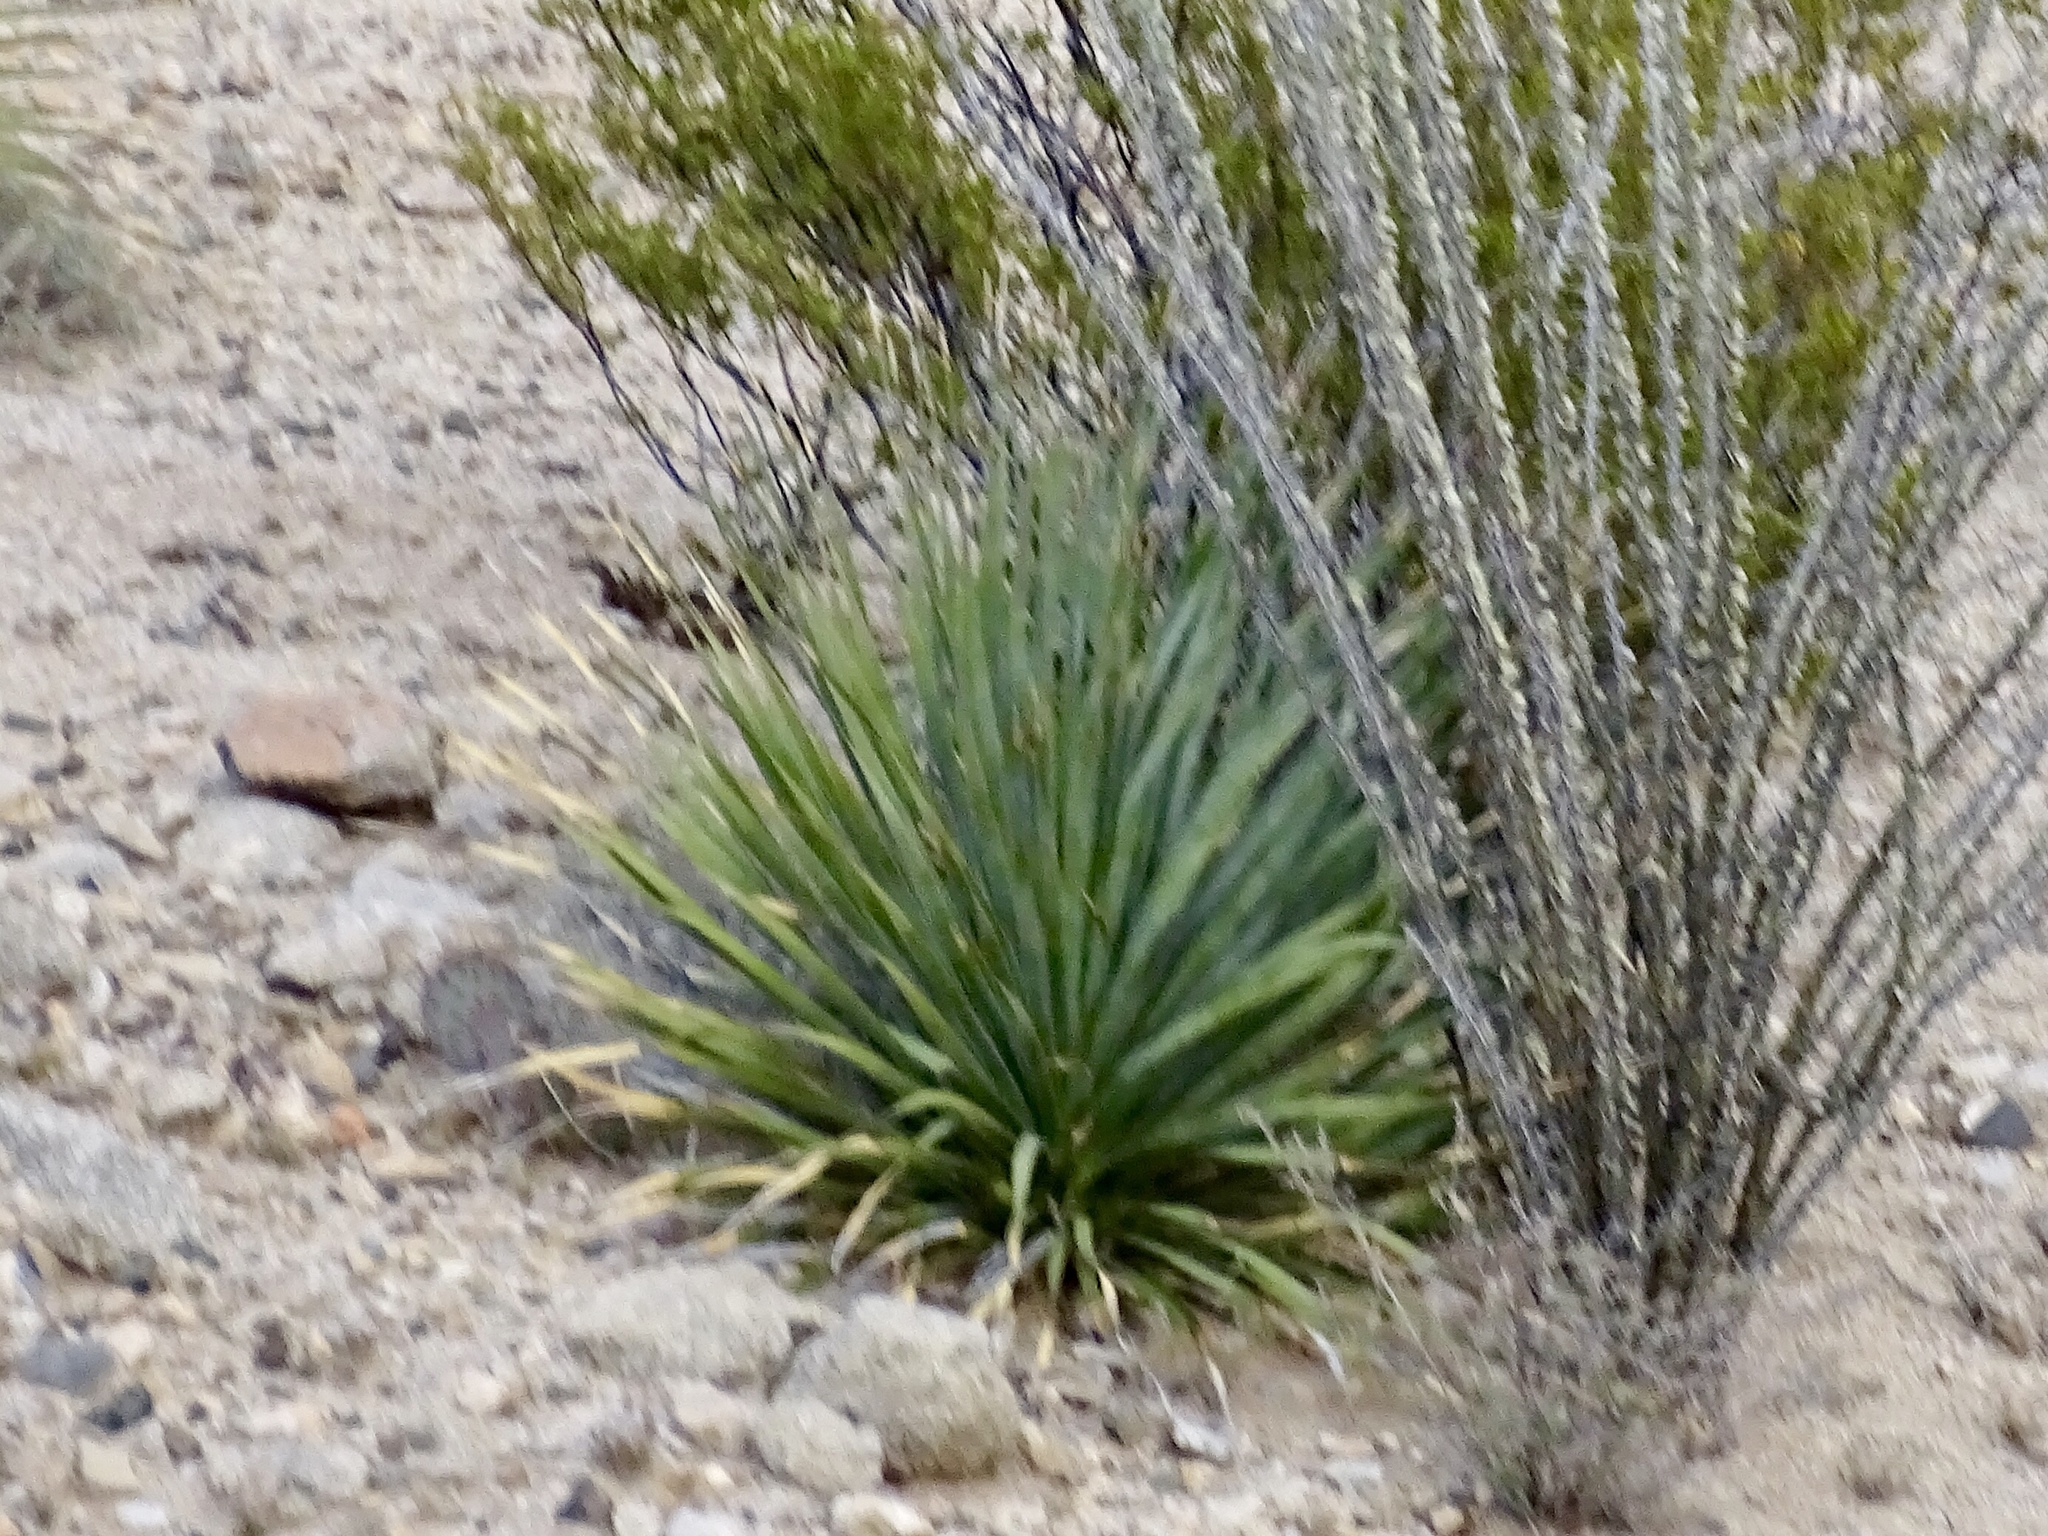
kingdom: Plantae
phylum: Tracheophyta
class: Liliopsida
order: Asparagales
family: Asparagaceae
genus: Dasylirion
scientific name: Dasylirion wheeleri
